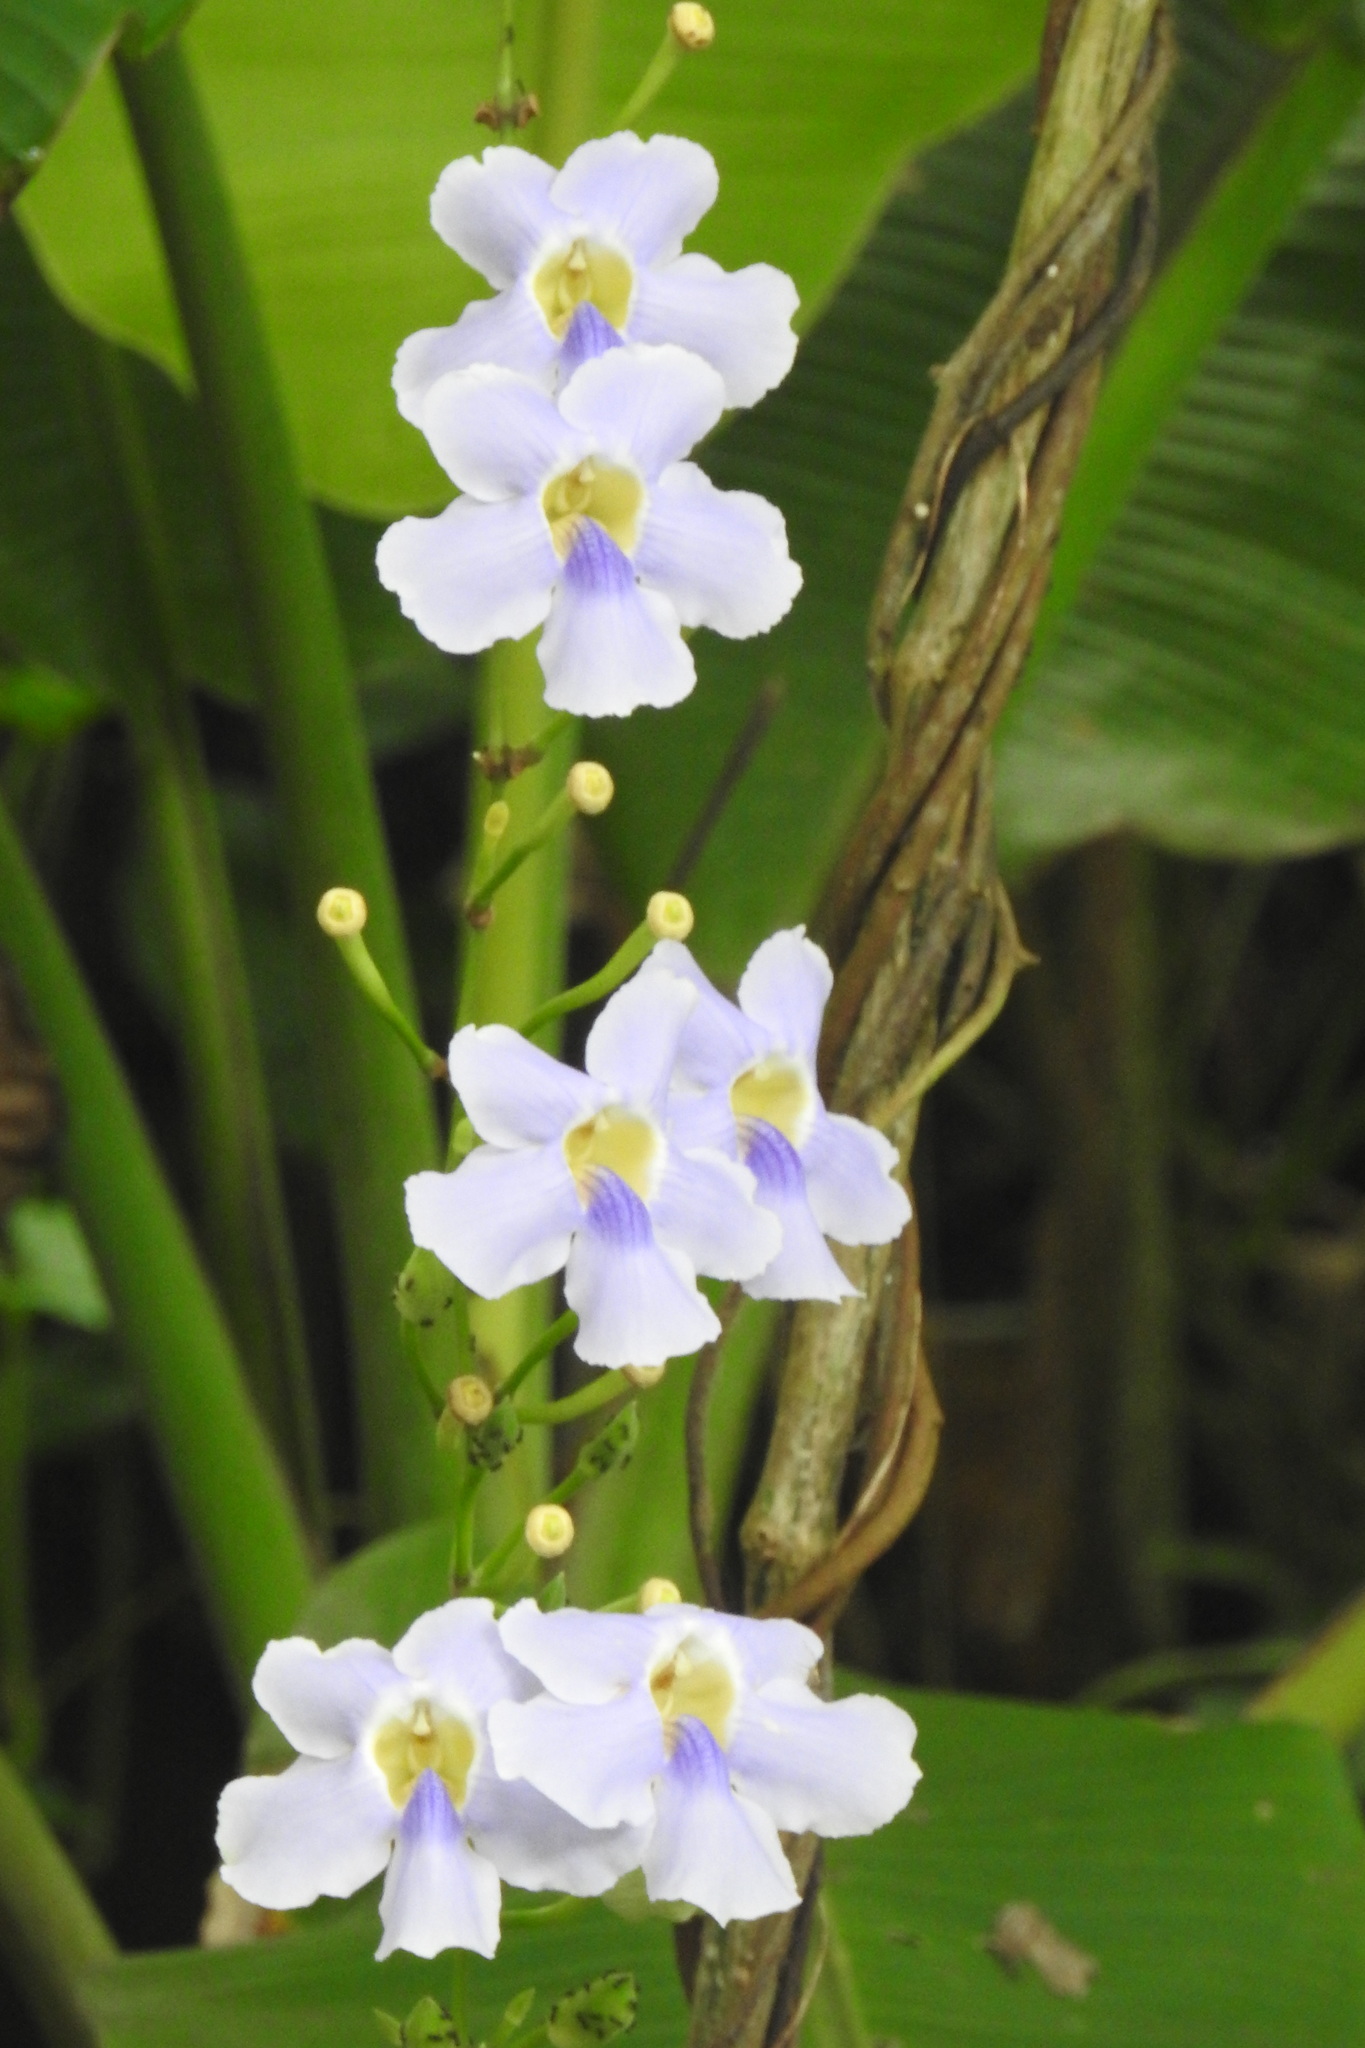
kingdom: Plantae
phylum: Tracheophyta
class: Magnoliopsida
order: Lamiales
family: Acanthaceae
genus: Thunbergia
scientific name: Thunbergia grandiflora
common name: Bengal trumpet
